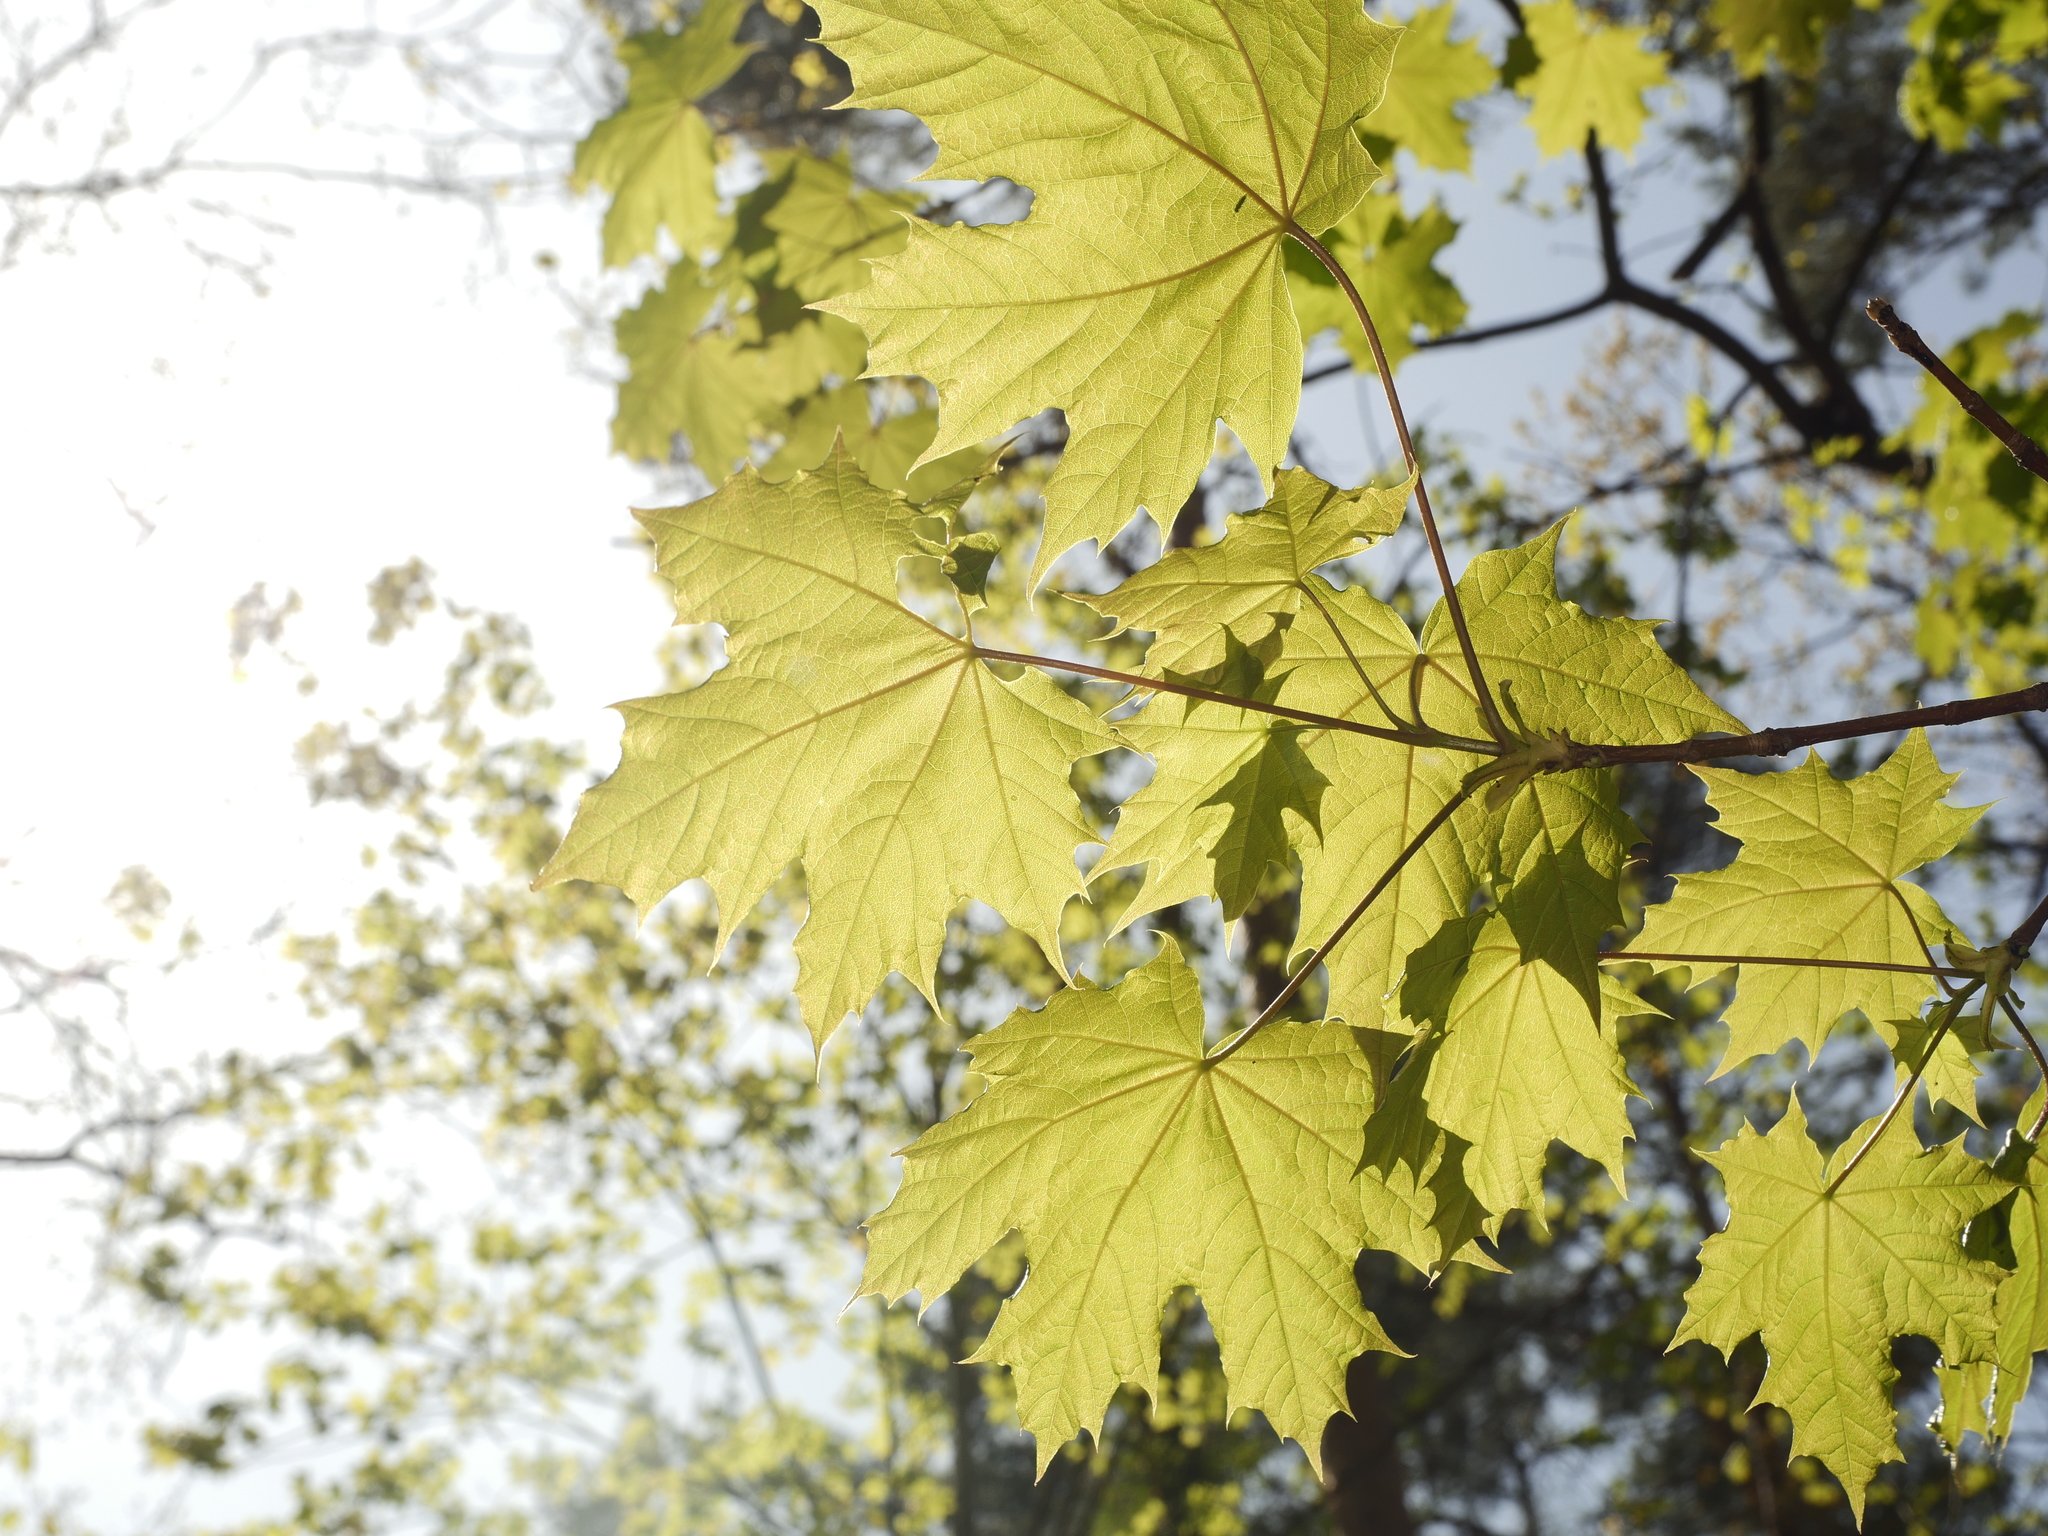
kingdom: Plantae
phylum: Tracheophyta
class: Magnoliopsida
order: Sapindales
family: Sapindaceae
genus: Acer
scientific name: Acer platanoides
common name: Norway maple
